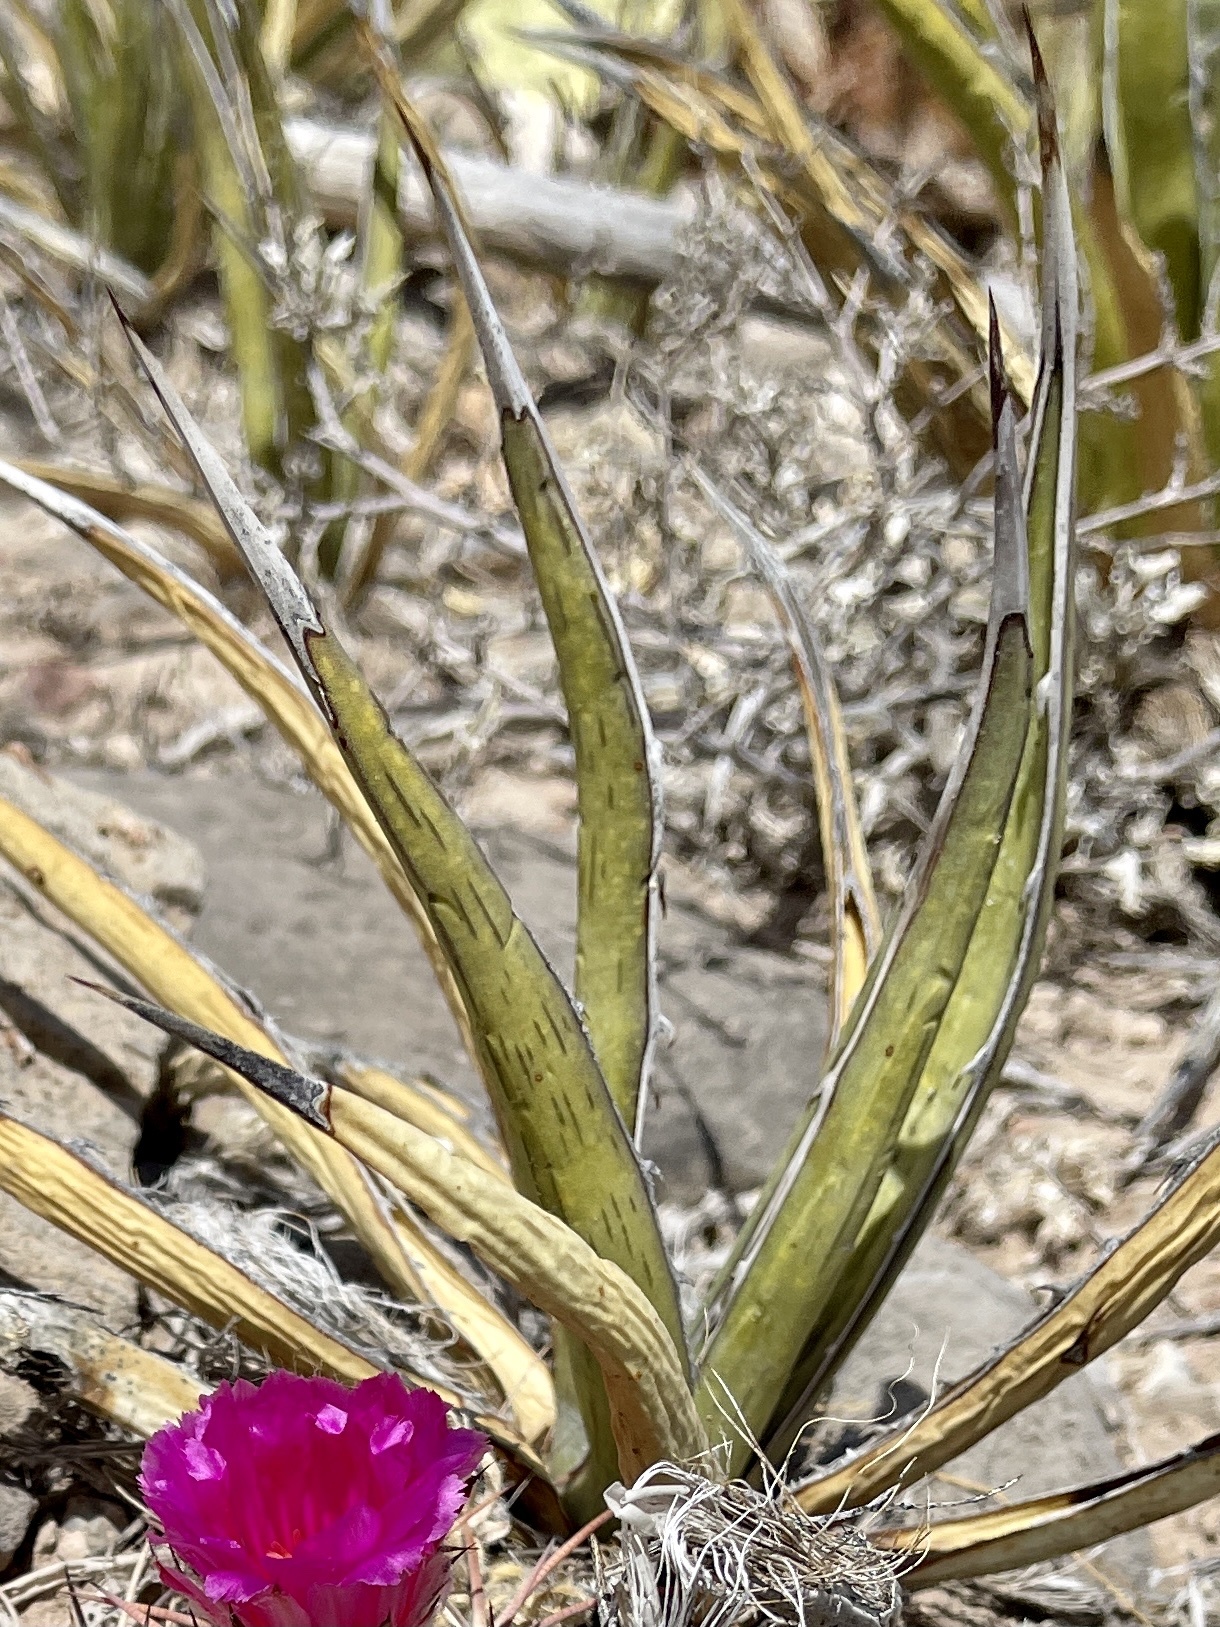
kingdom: Plantae
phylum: Tracheophyta
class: Liliopsida
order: Asparagales
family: Asparagaceae
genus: Agave
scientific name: Agave lechuguilla
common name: Lecheguilla agave
